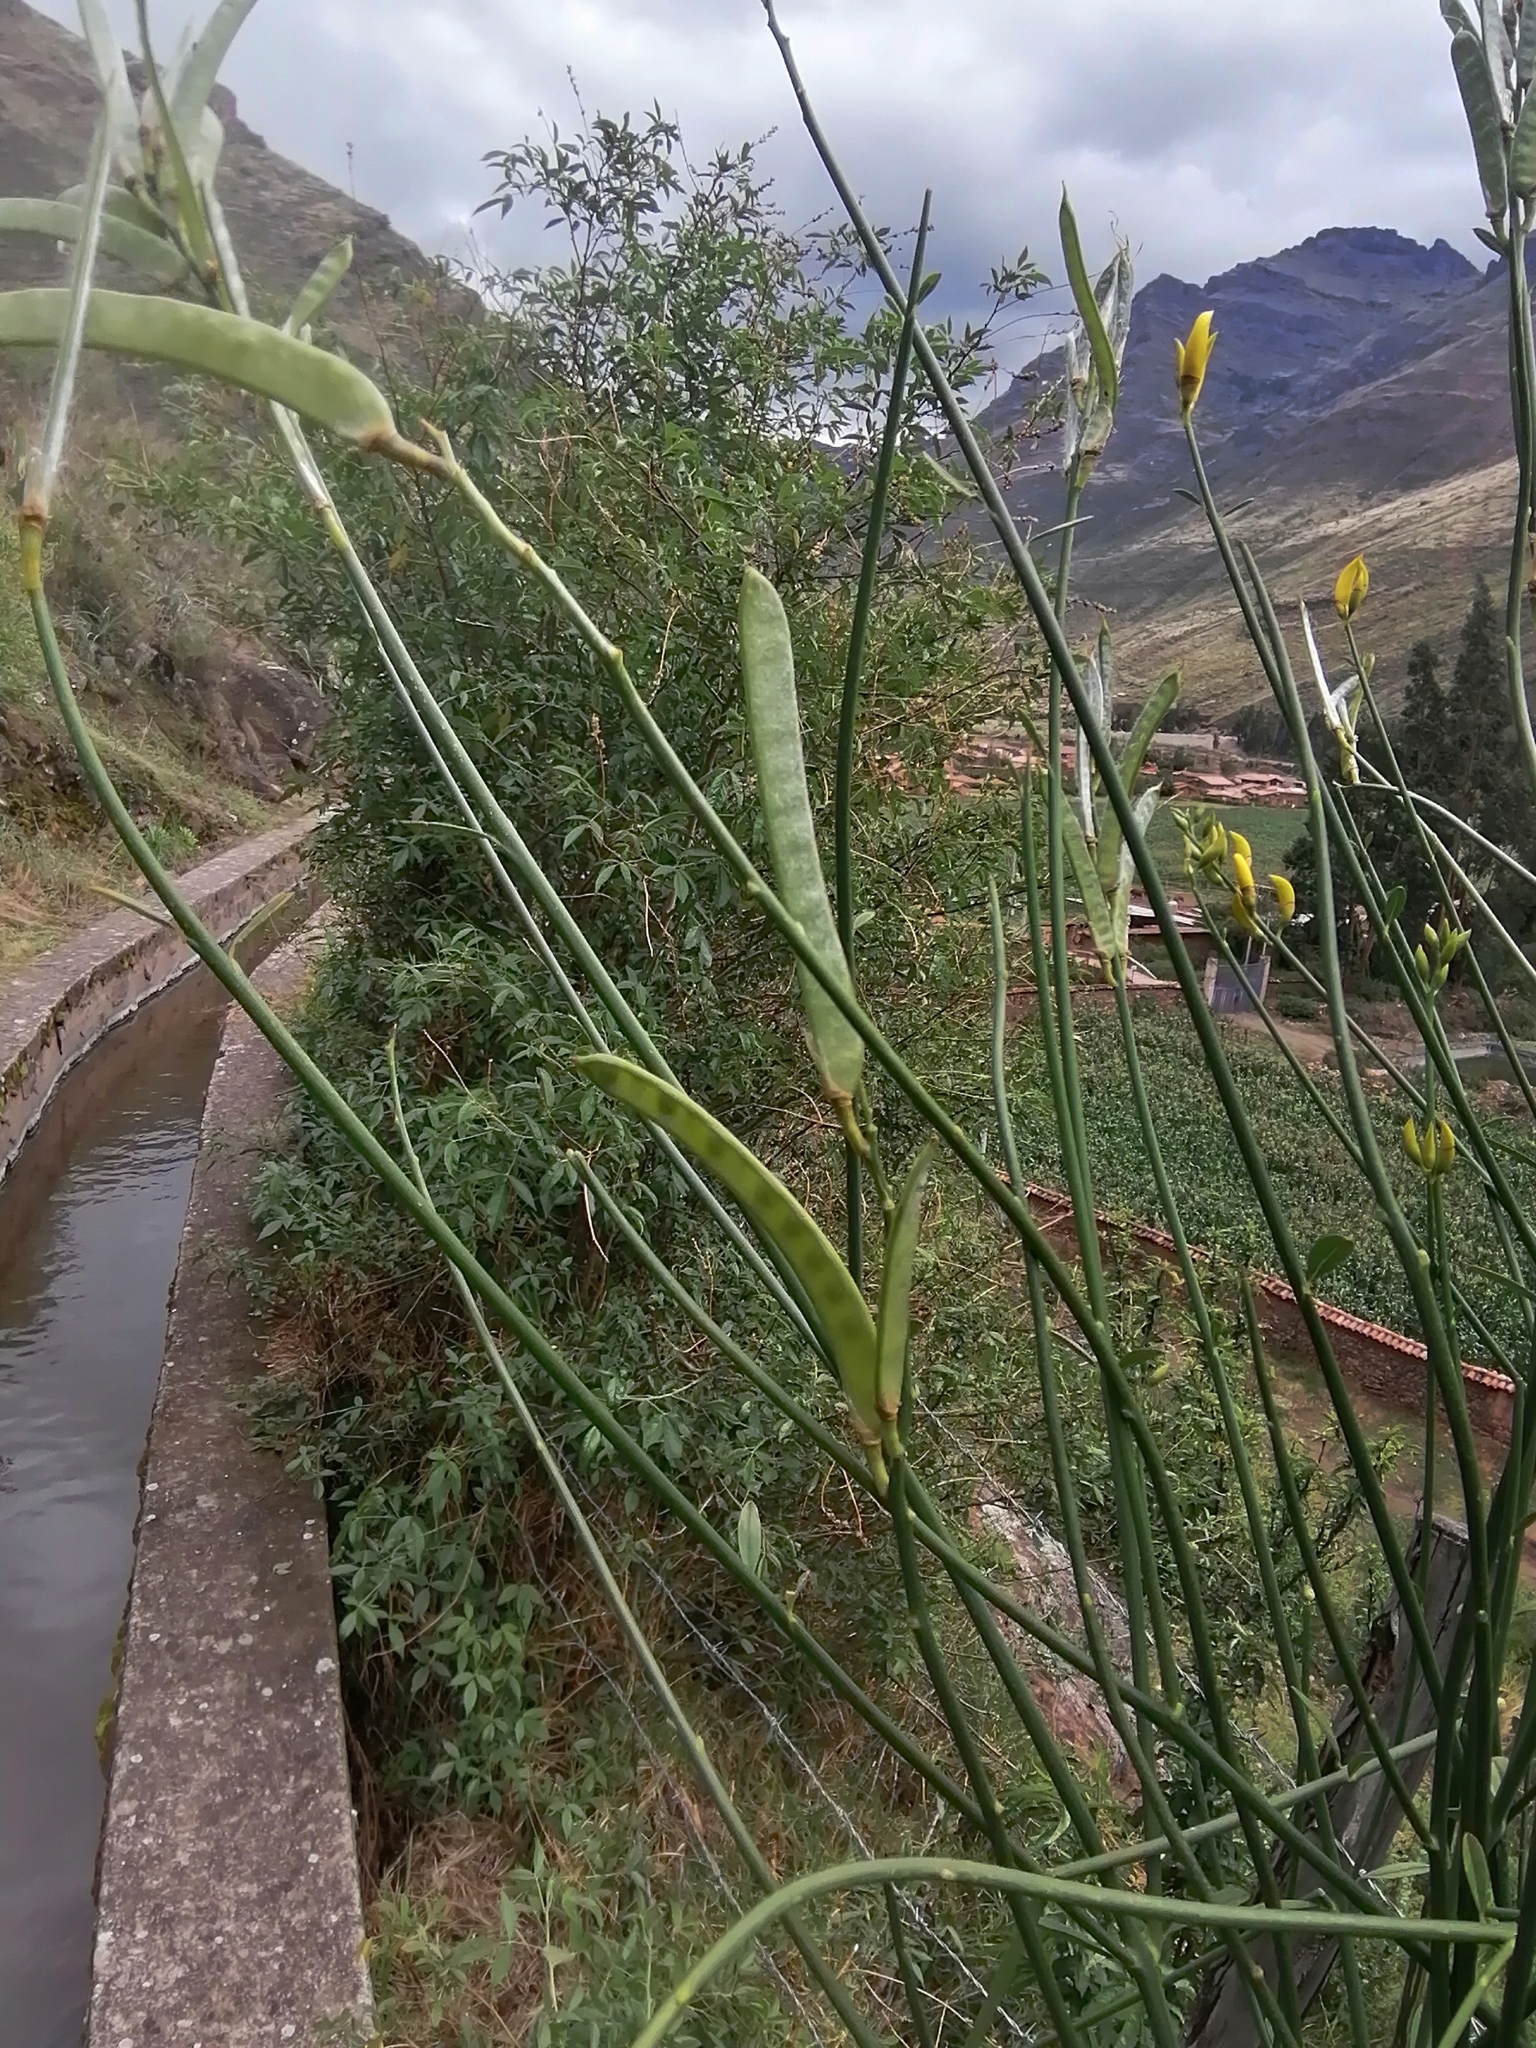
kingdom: Plantae
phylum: Tracheophyta
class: Magnoliopsida
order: Fabales
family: Fabaceae
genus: Spartium
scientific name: Spartium junceum
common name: Spanish broom
